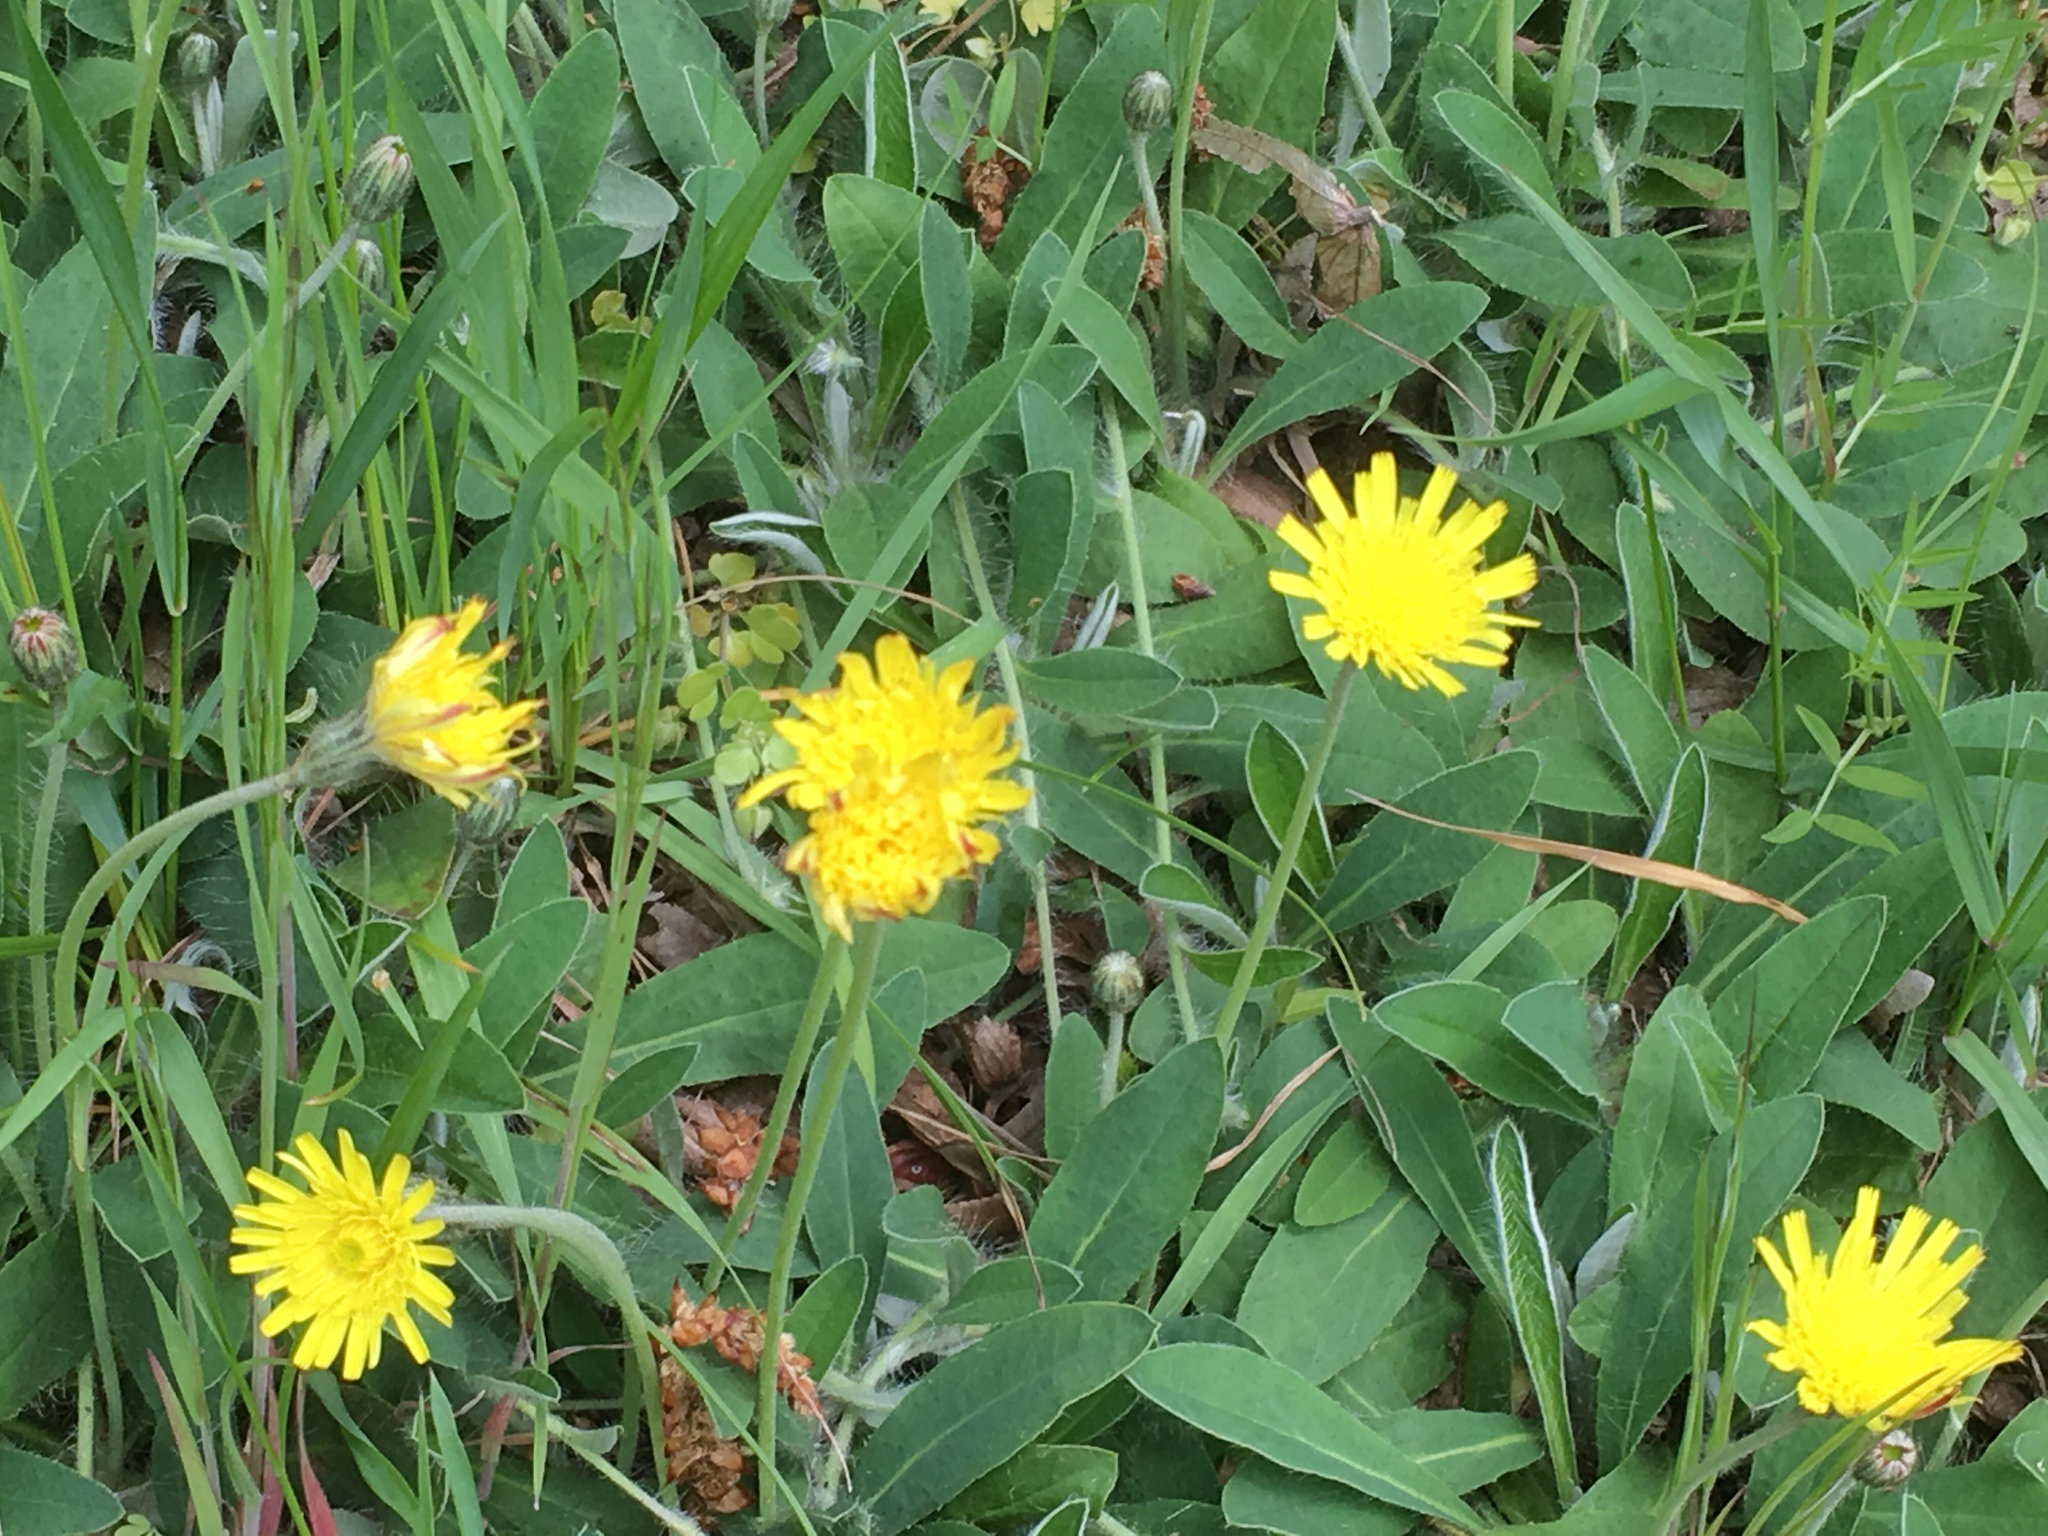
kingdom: Plantae
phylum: Tracheophyta
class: Magnoliopsida
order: Asterales
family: Asteraceae
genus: Pilosella
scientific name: Pilosella officinarum
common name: Mouse-ear hawkweed
